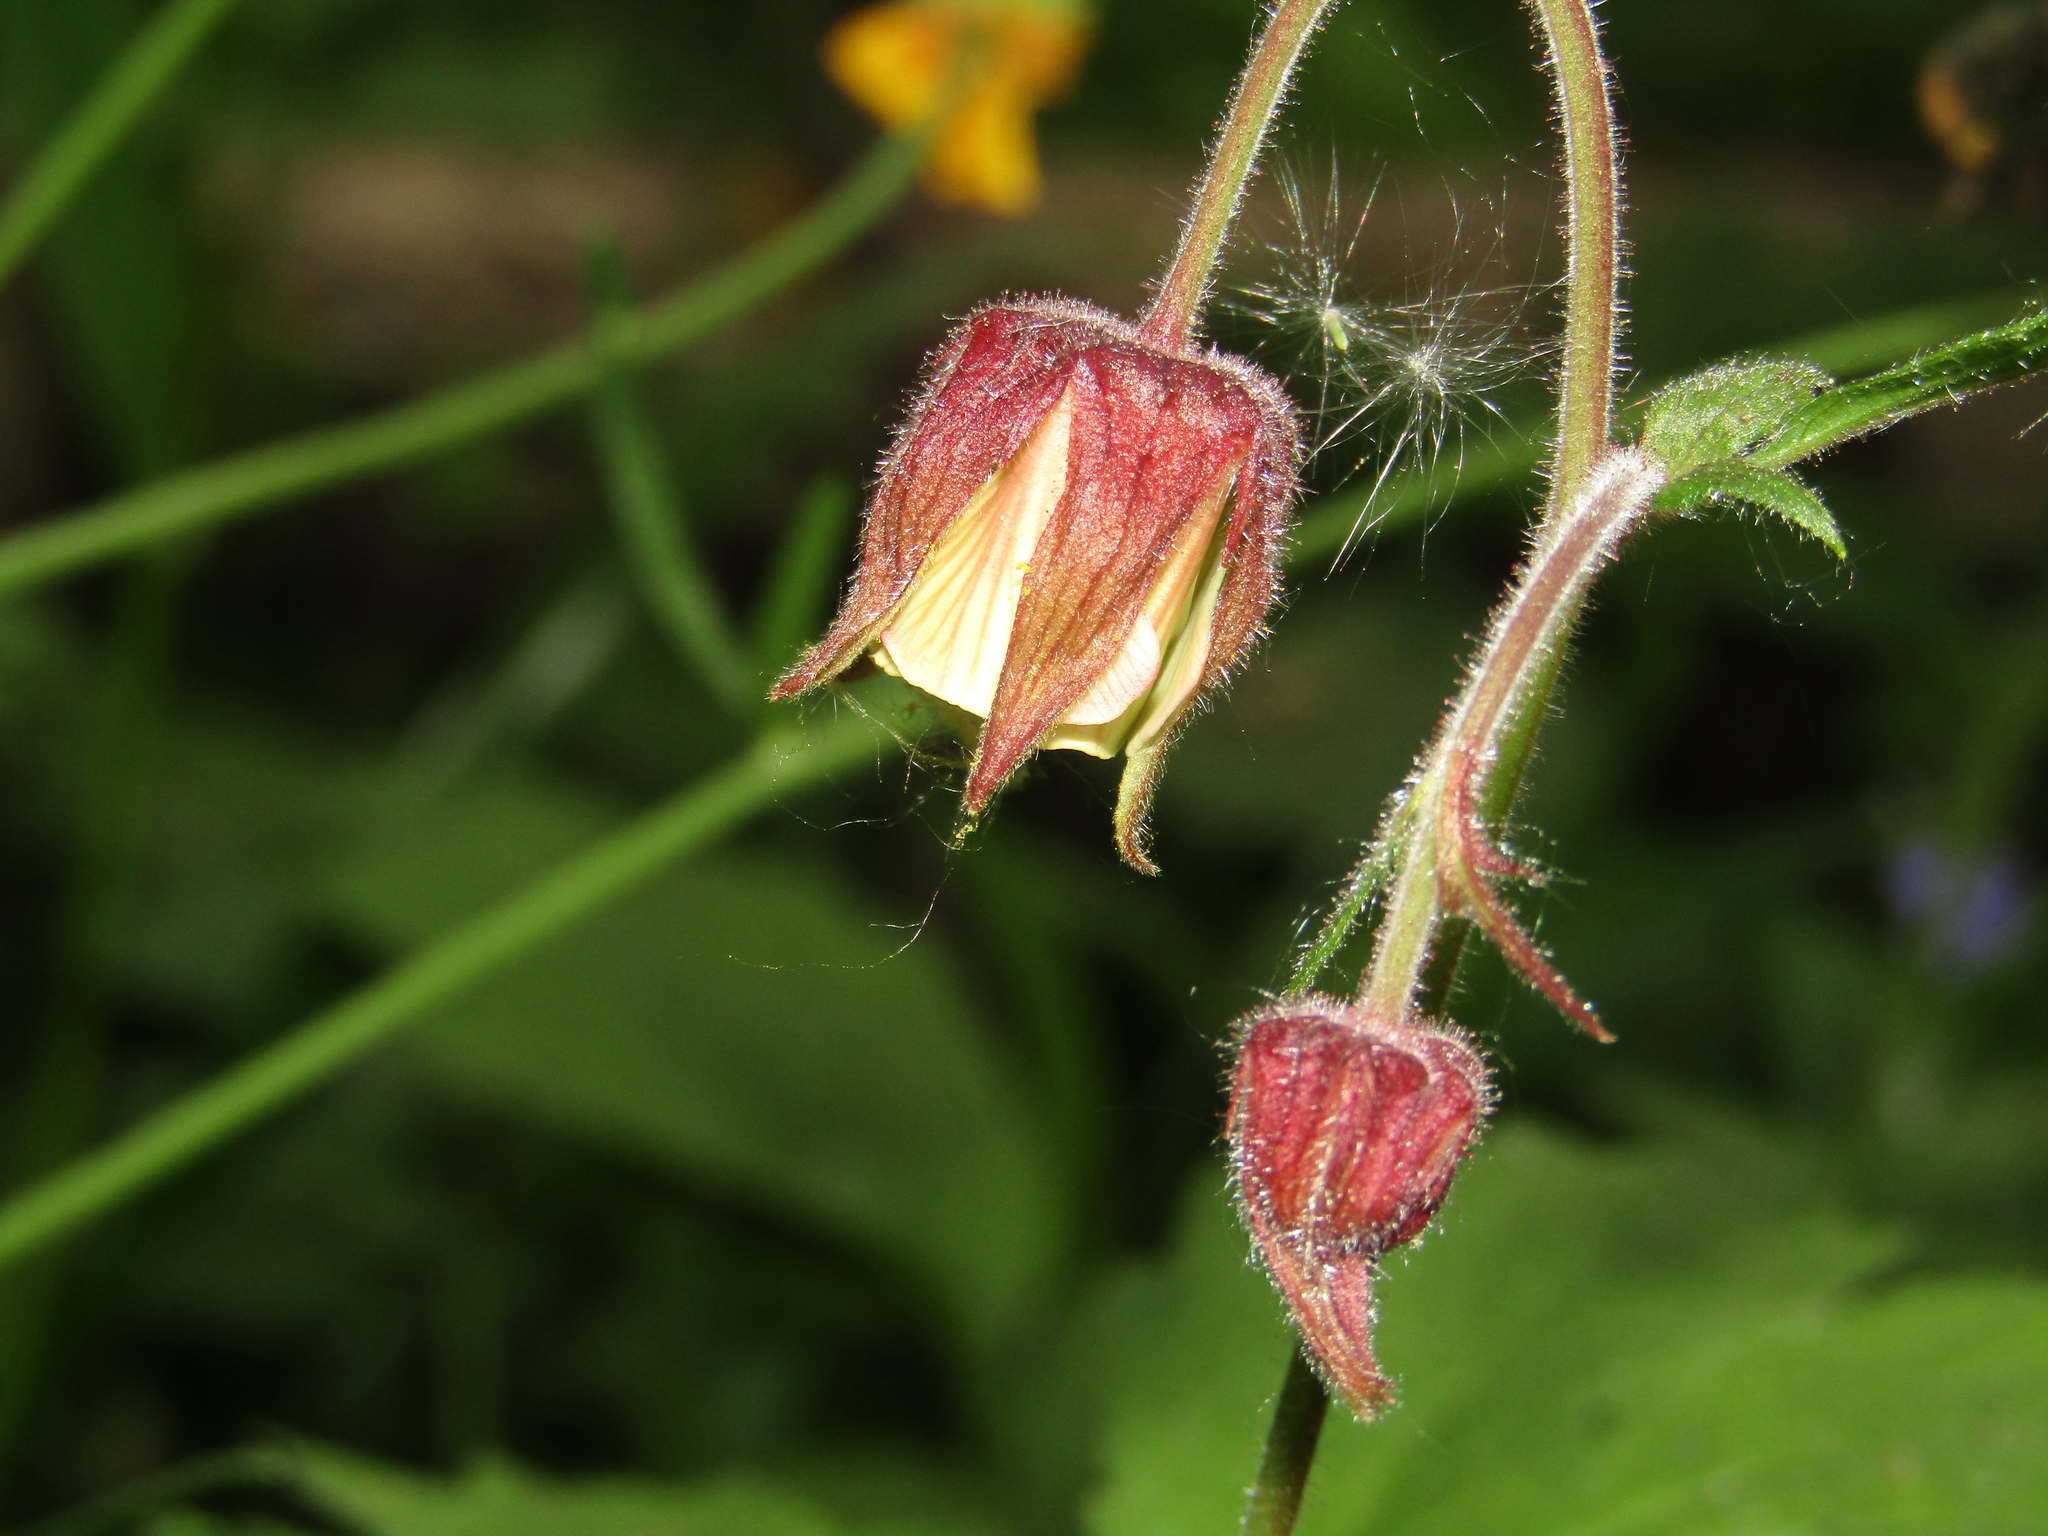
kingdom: Plantae
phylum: Tracheophyta
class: Magnoliopsida
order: Rosales
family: Rosaceae
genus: Geum
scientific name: Geum rivale
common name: Water avens
